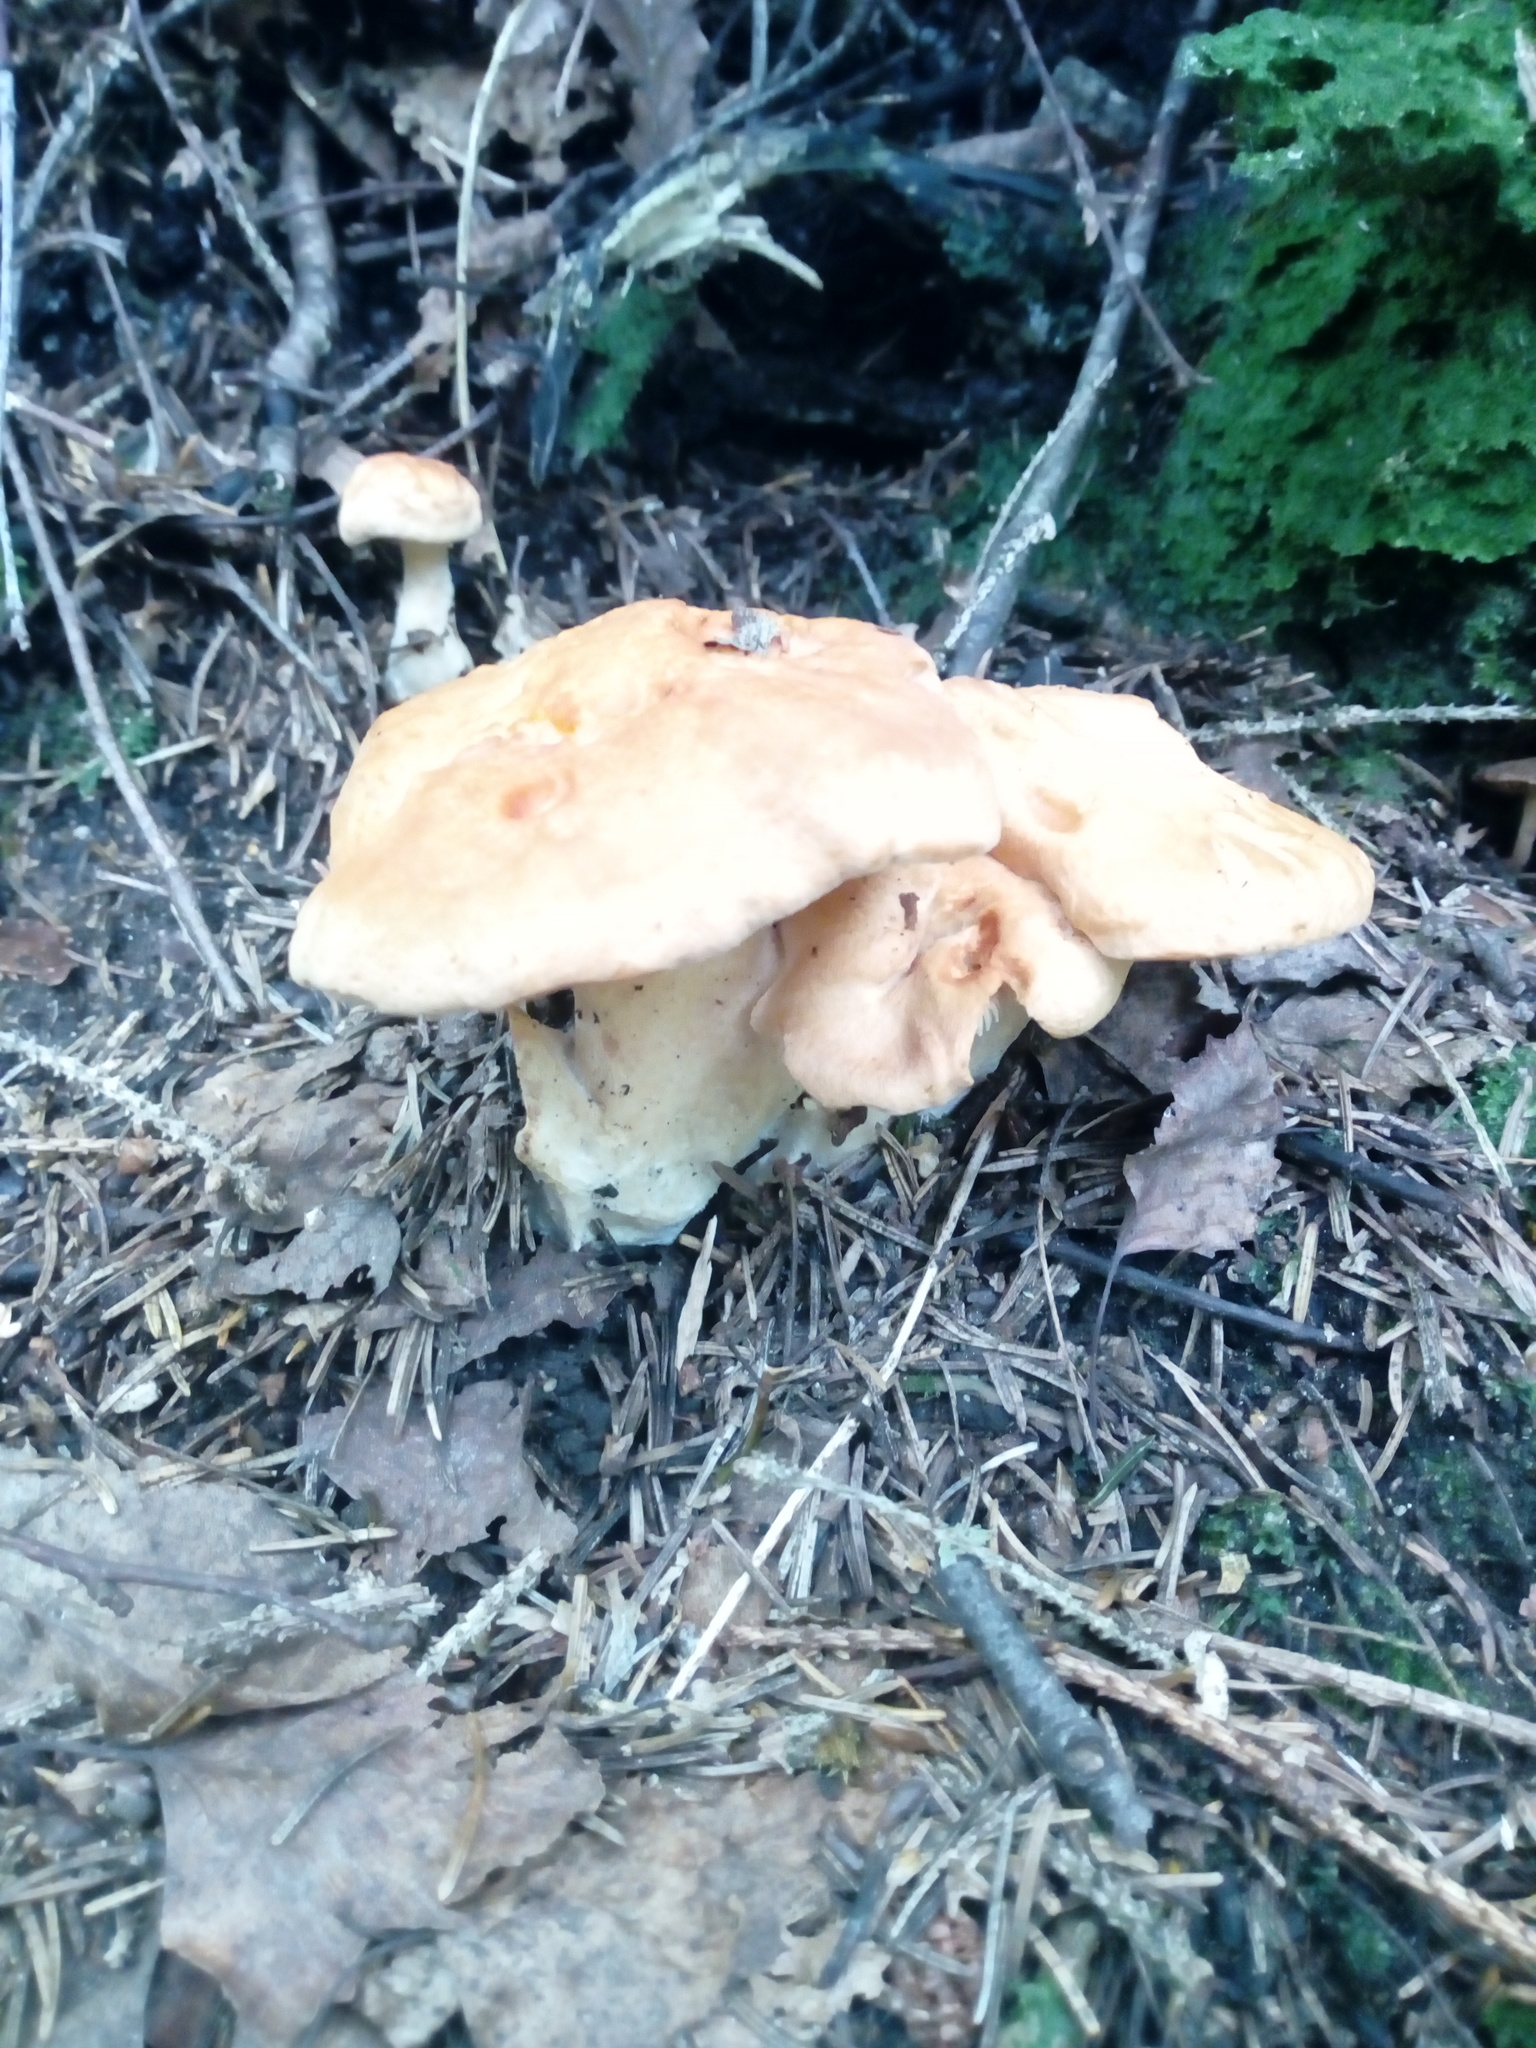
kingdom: Fungi
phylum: Basidiomycota
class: Agaricomycetes
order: Cantharellales
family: Hydnaceae
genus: Hydnum
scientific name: Hydnum repandum
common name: Wood hedgehog
